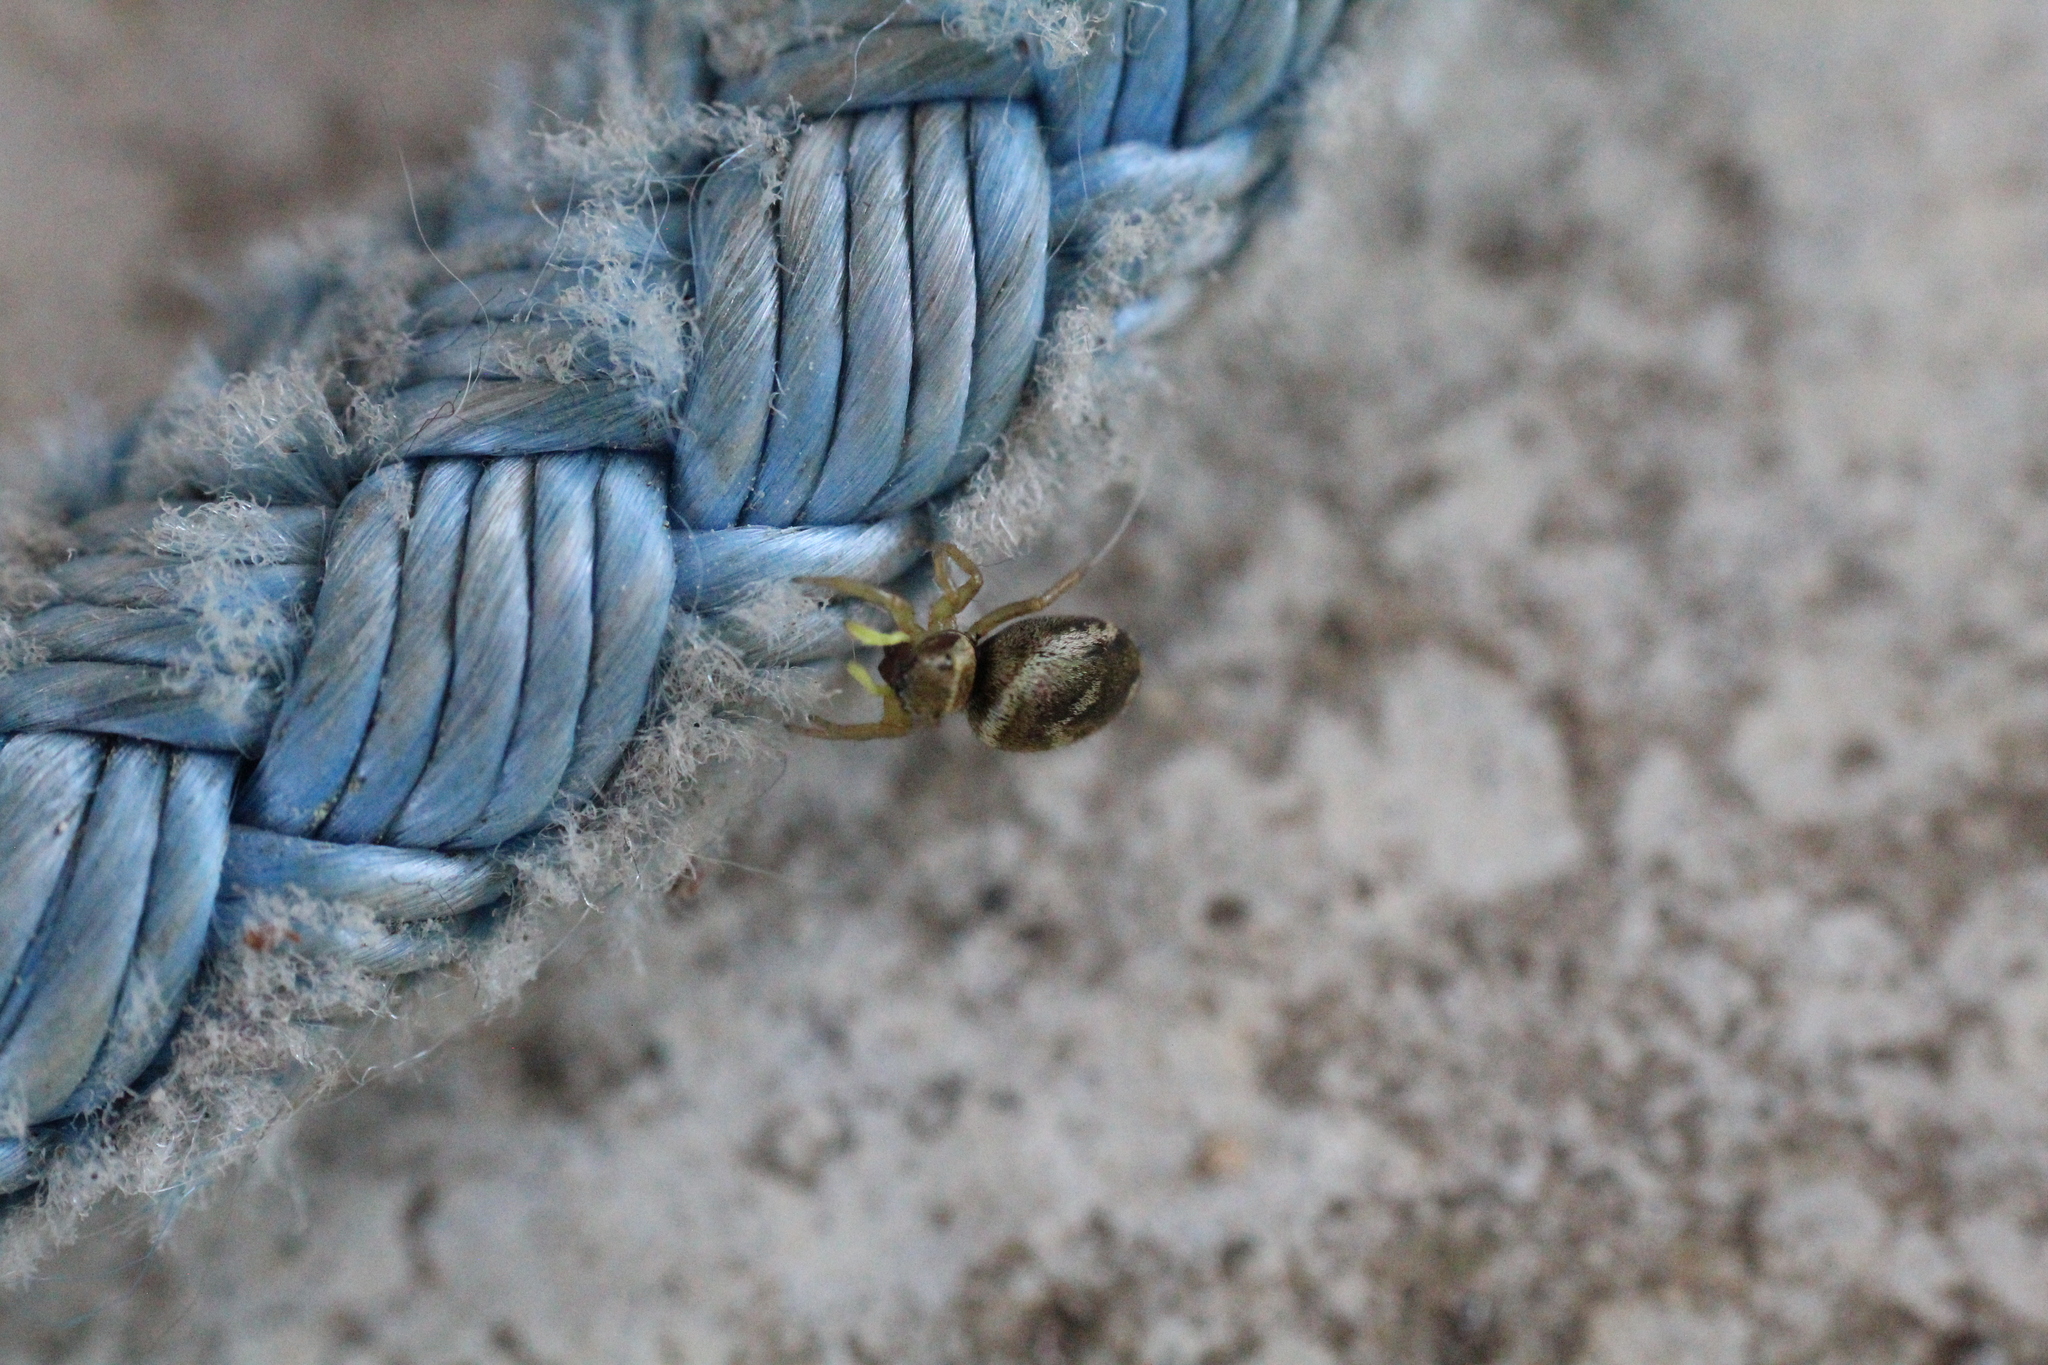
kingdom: Animalia
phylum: Arthropoda
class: Arachnida
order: Araneae
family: Salticidae
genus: Heliophanus
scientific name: Heliophanus tribulosus
